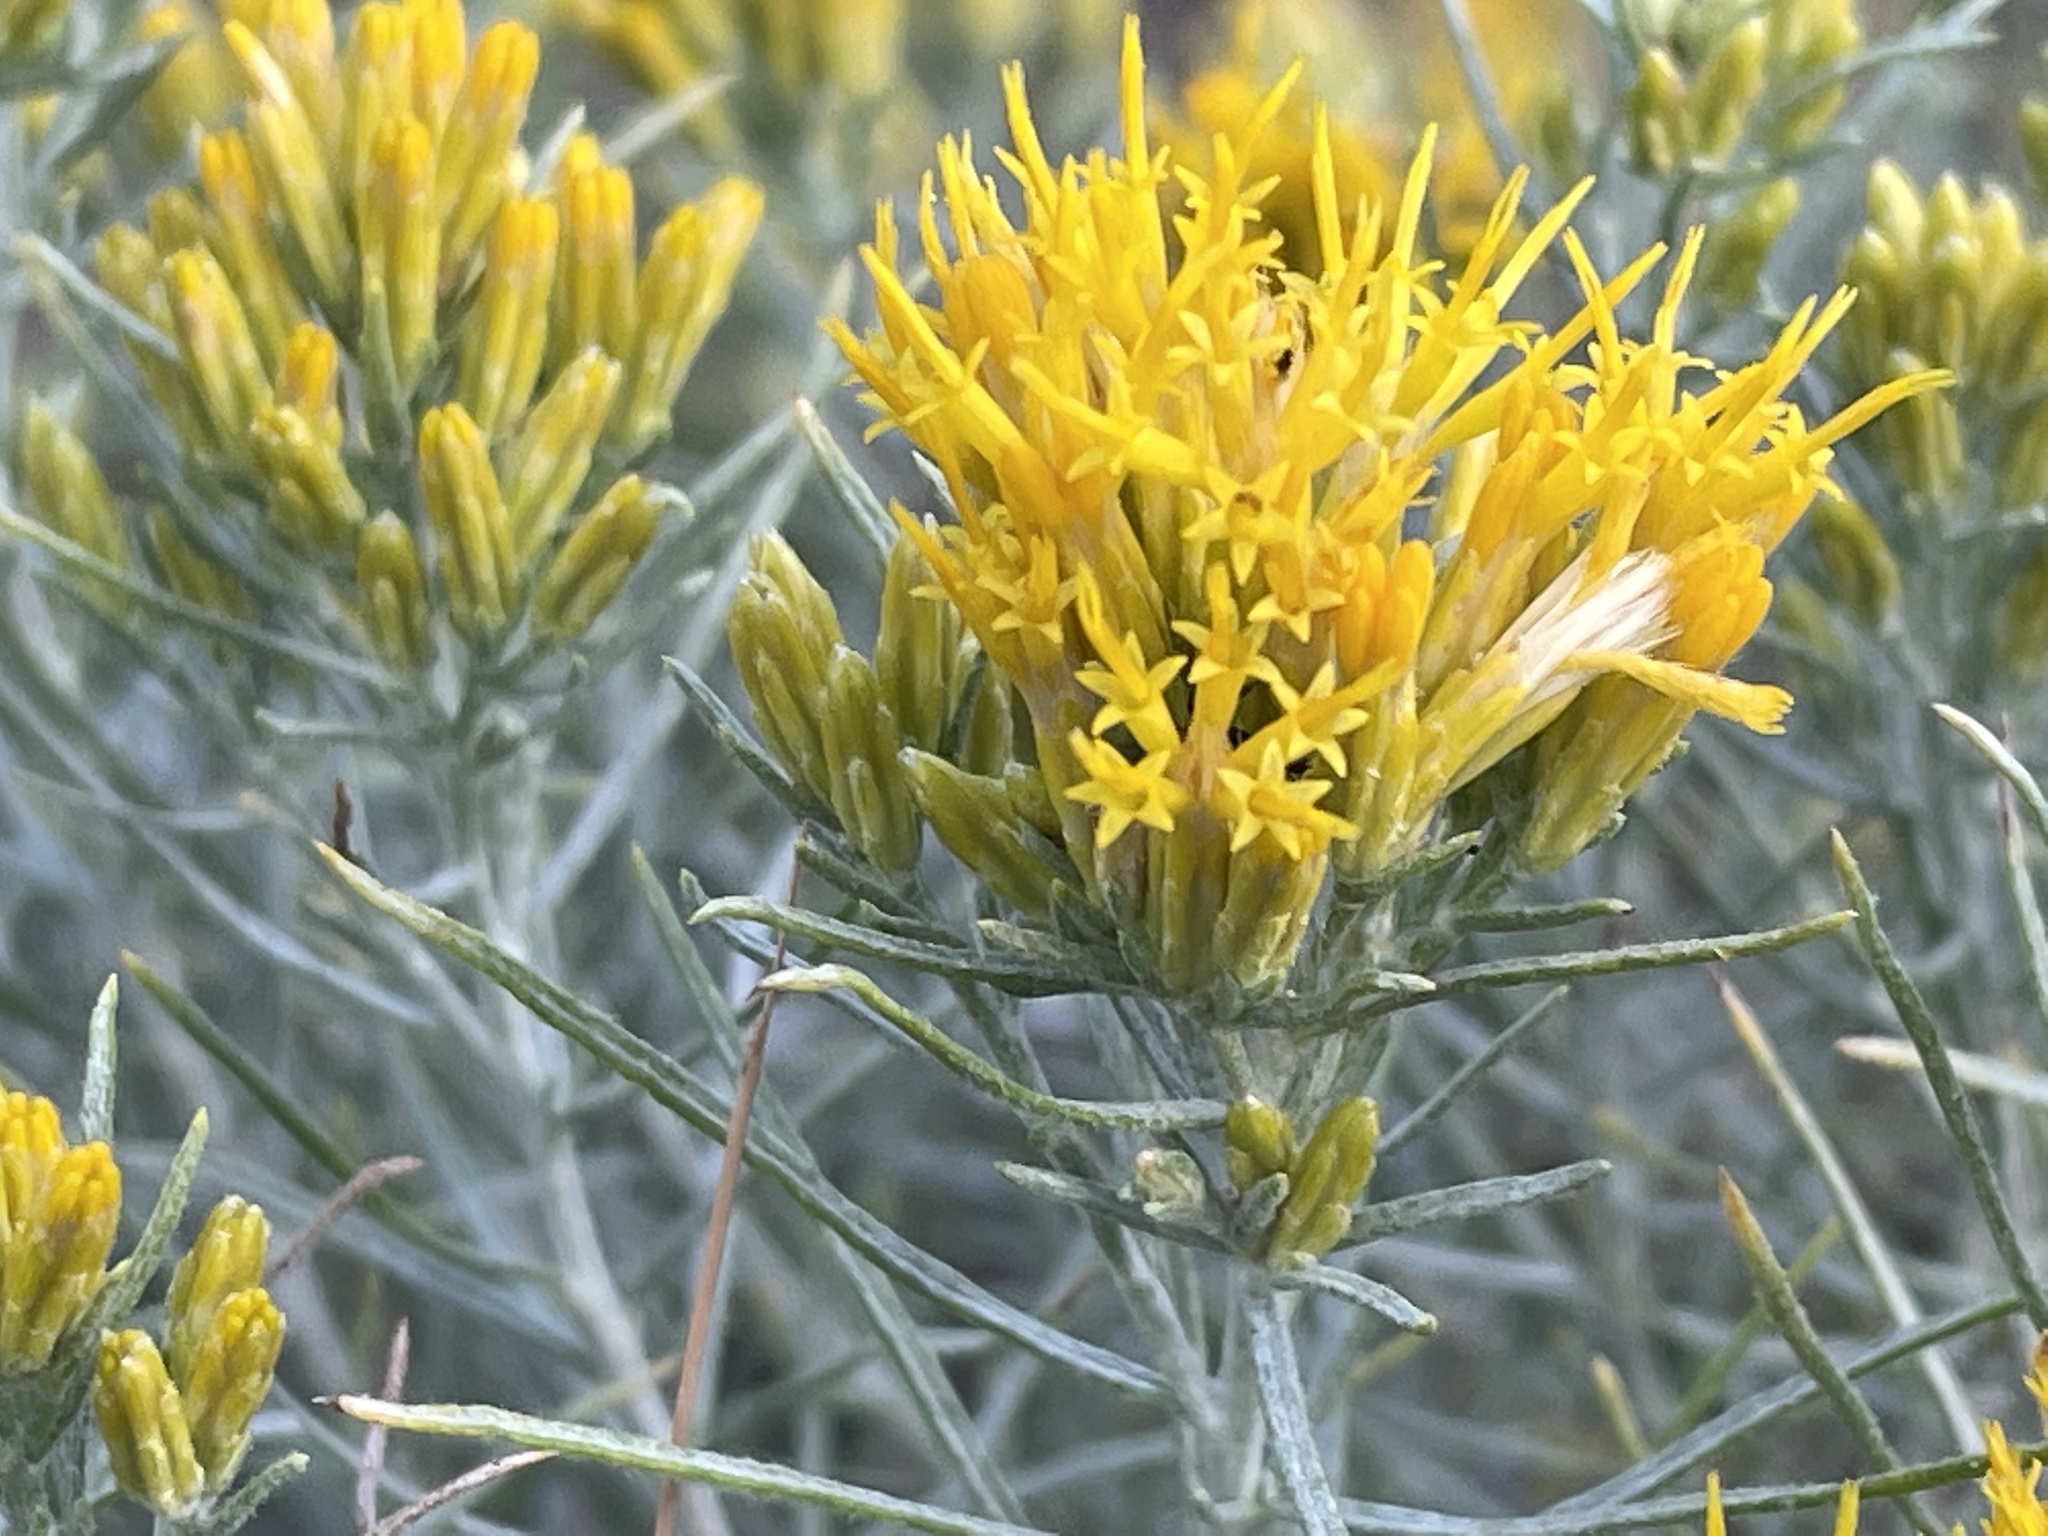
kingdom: Plantae
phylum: Tracheophyta
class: Magnoliopsida
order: Asterales
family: Asteraceae
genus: Ericameria
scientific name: Ericameria nauseosa
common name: Rubber rabbitbrush
